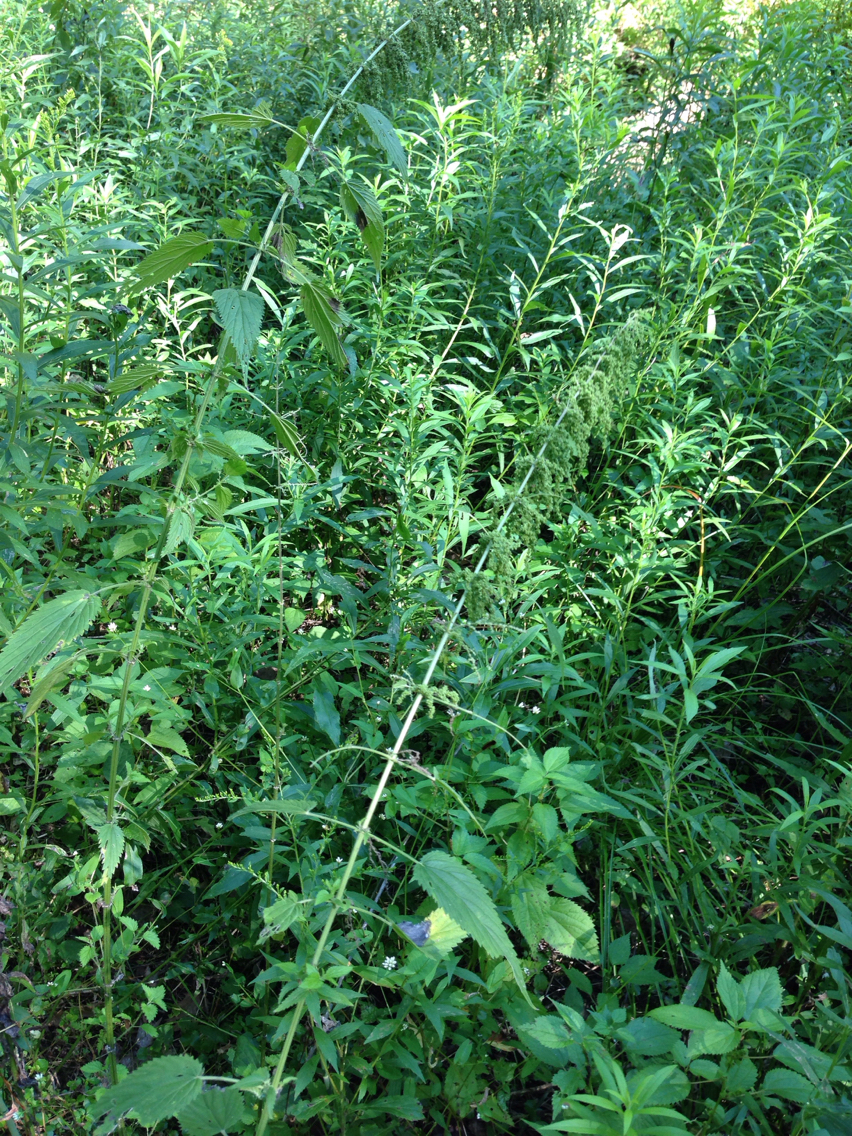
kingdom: Plantae
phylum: Tracheophyta
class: Magnoliopsida
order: Rosales
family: Urticaceae
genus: Urtica
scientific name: Urtica dioica
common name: Common nettle
